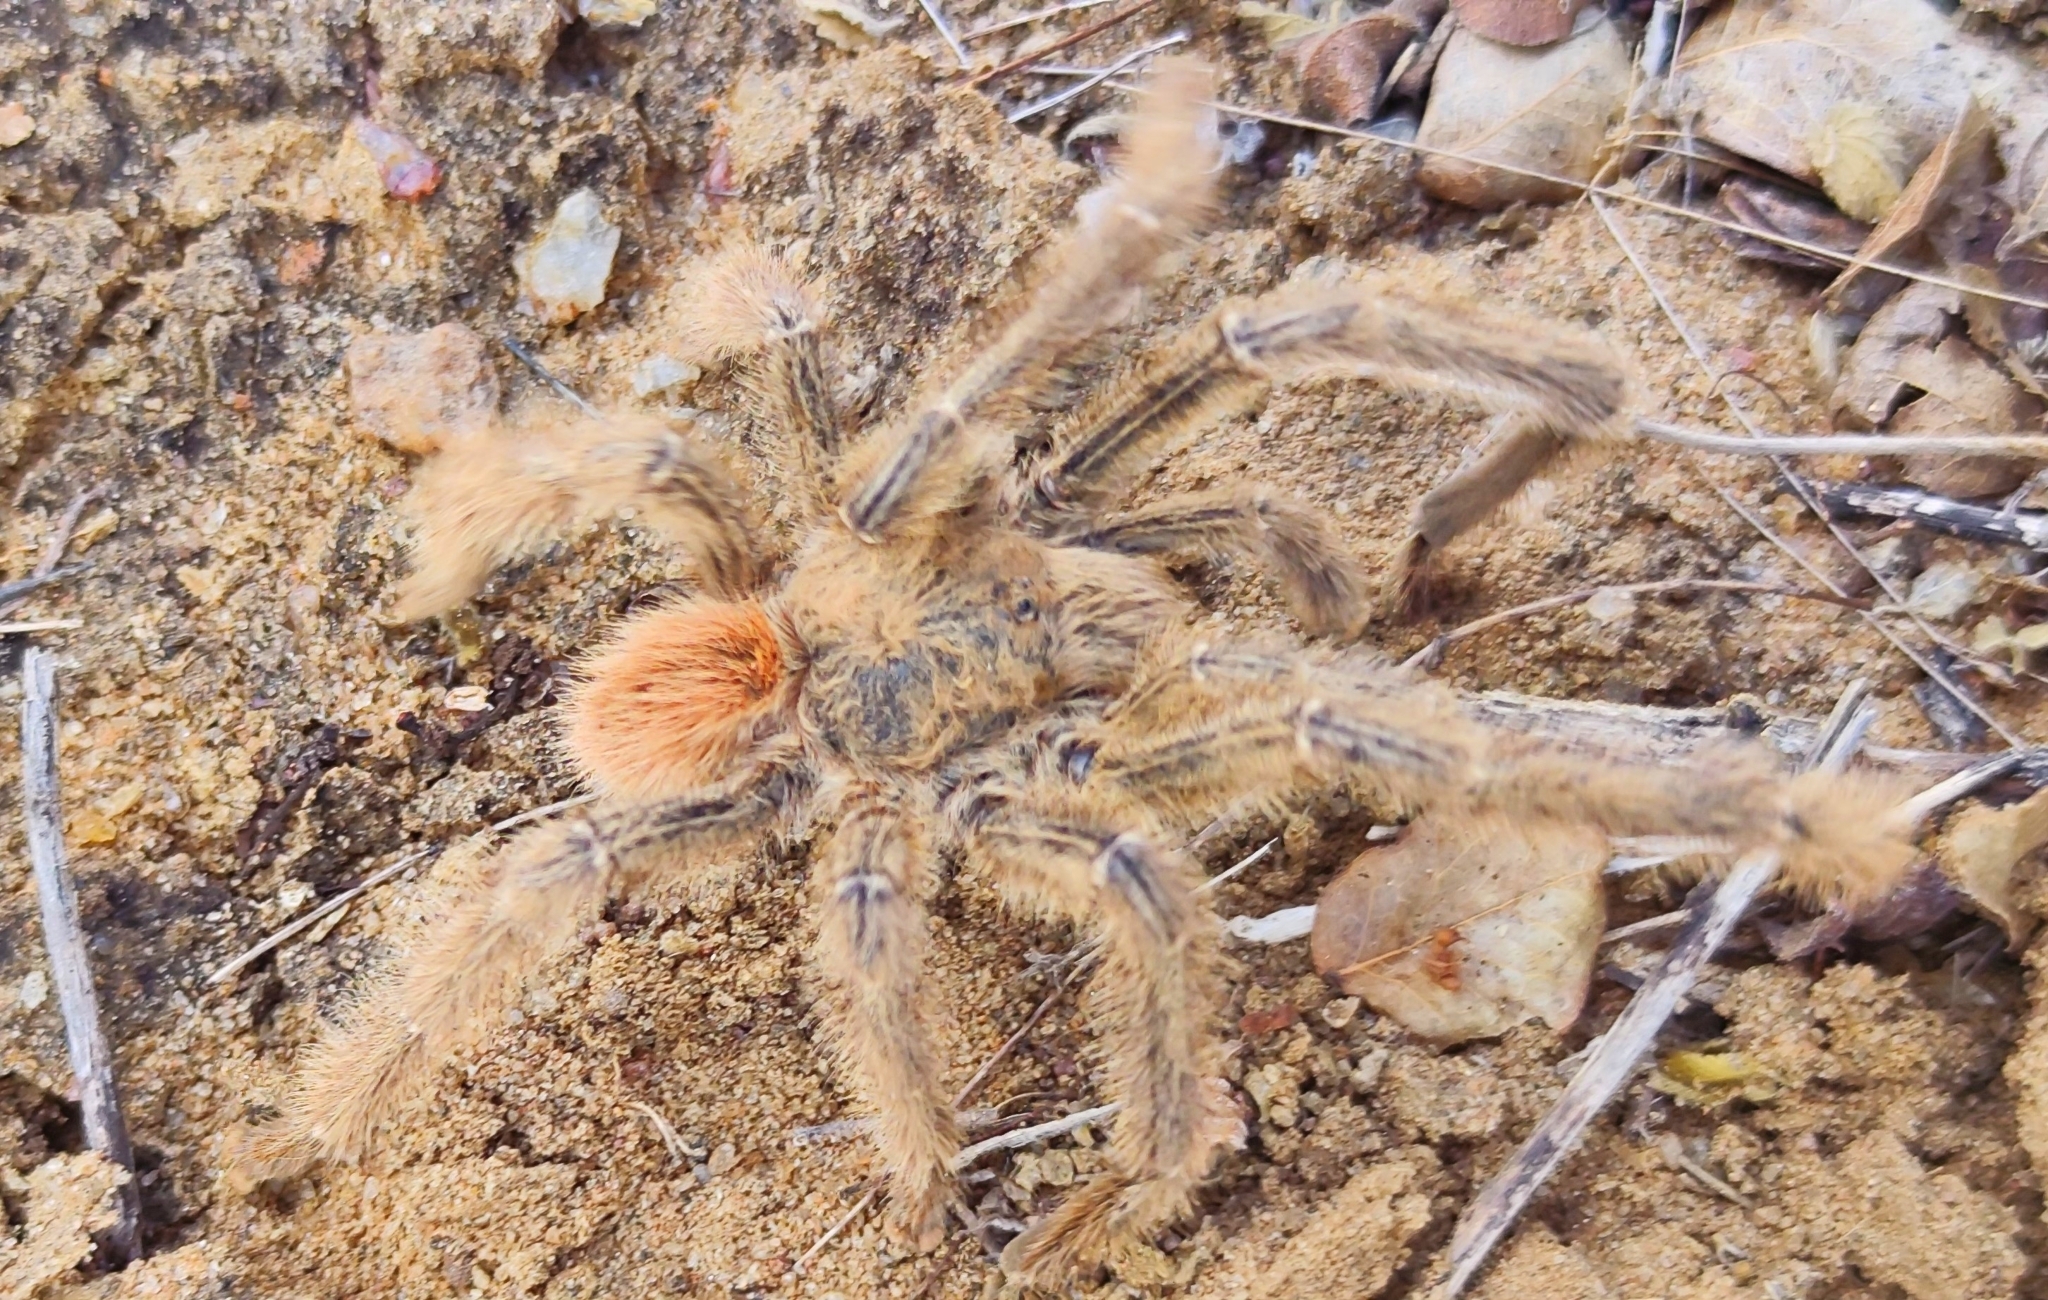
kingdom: Animalia
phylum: Arthropoda
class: Arachnida
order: Araneae
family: Theraphosidae
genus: Iridopelma
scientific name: Iridopelma hirsutum
